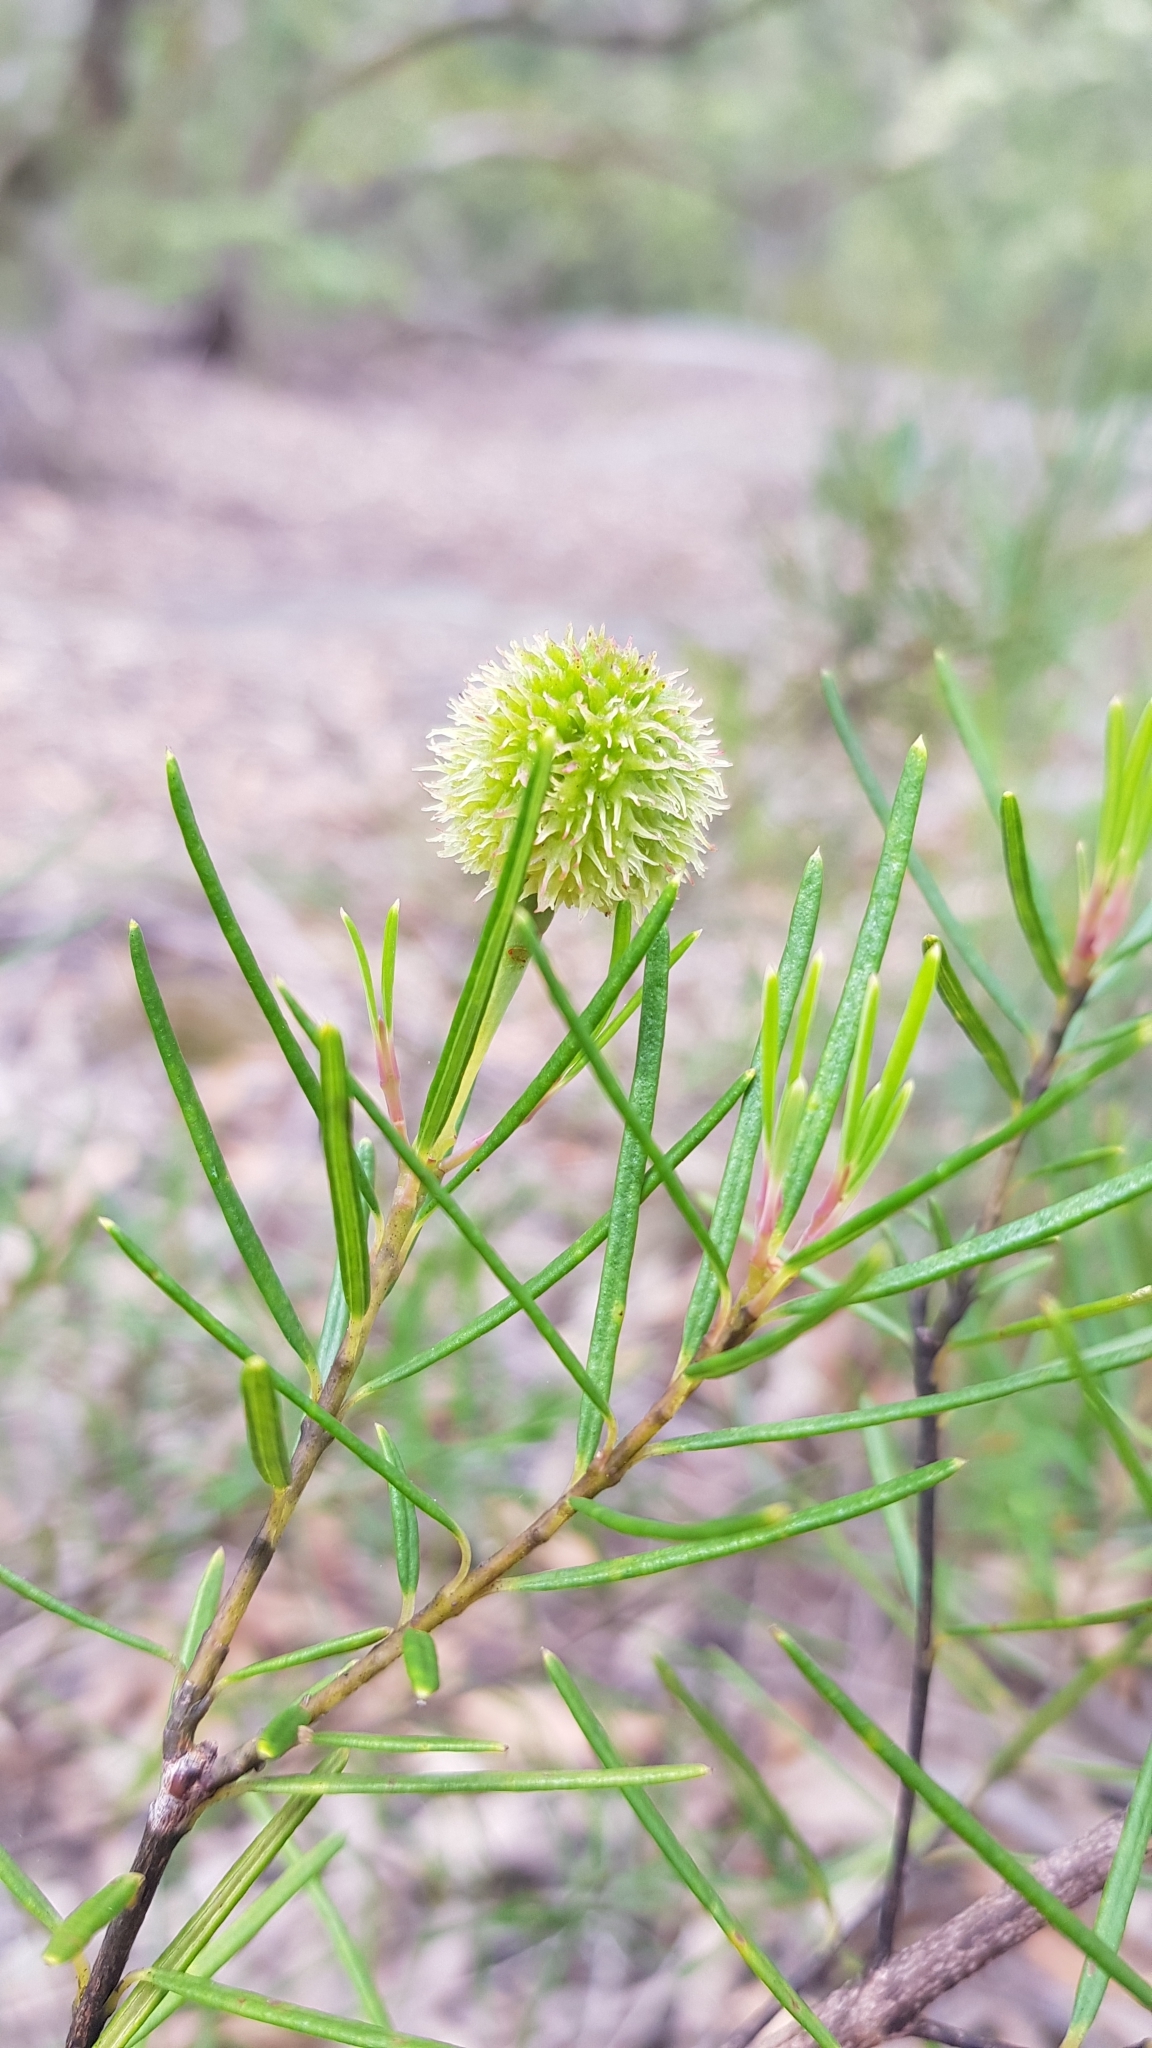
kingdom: Plantae
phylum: Tracheophyta
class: Magnoliopsida
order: Malpighiales
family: Euphorbiaceae
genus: Ricinocarpos
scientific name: Ricinocarpos pinifolius
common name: Weddingbush
